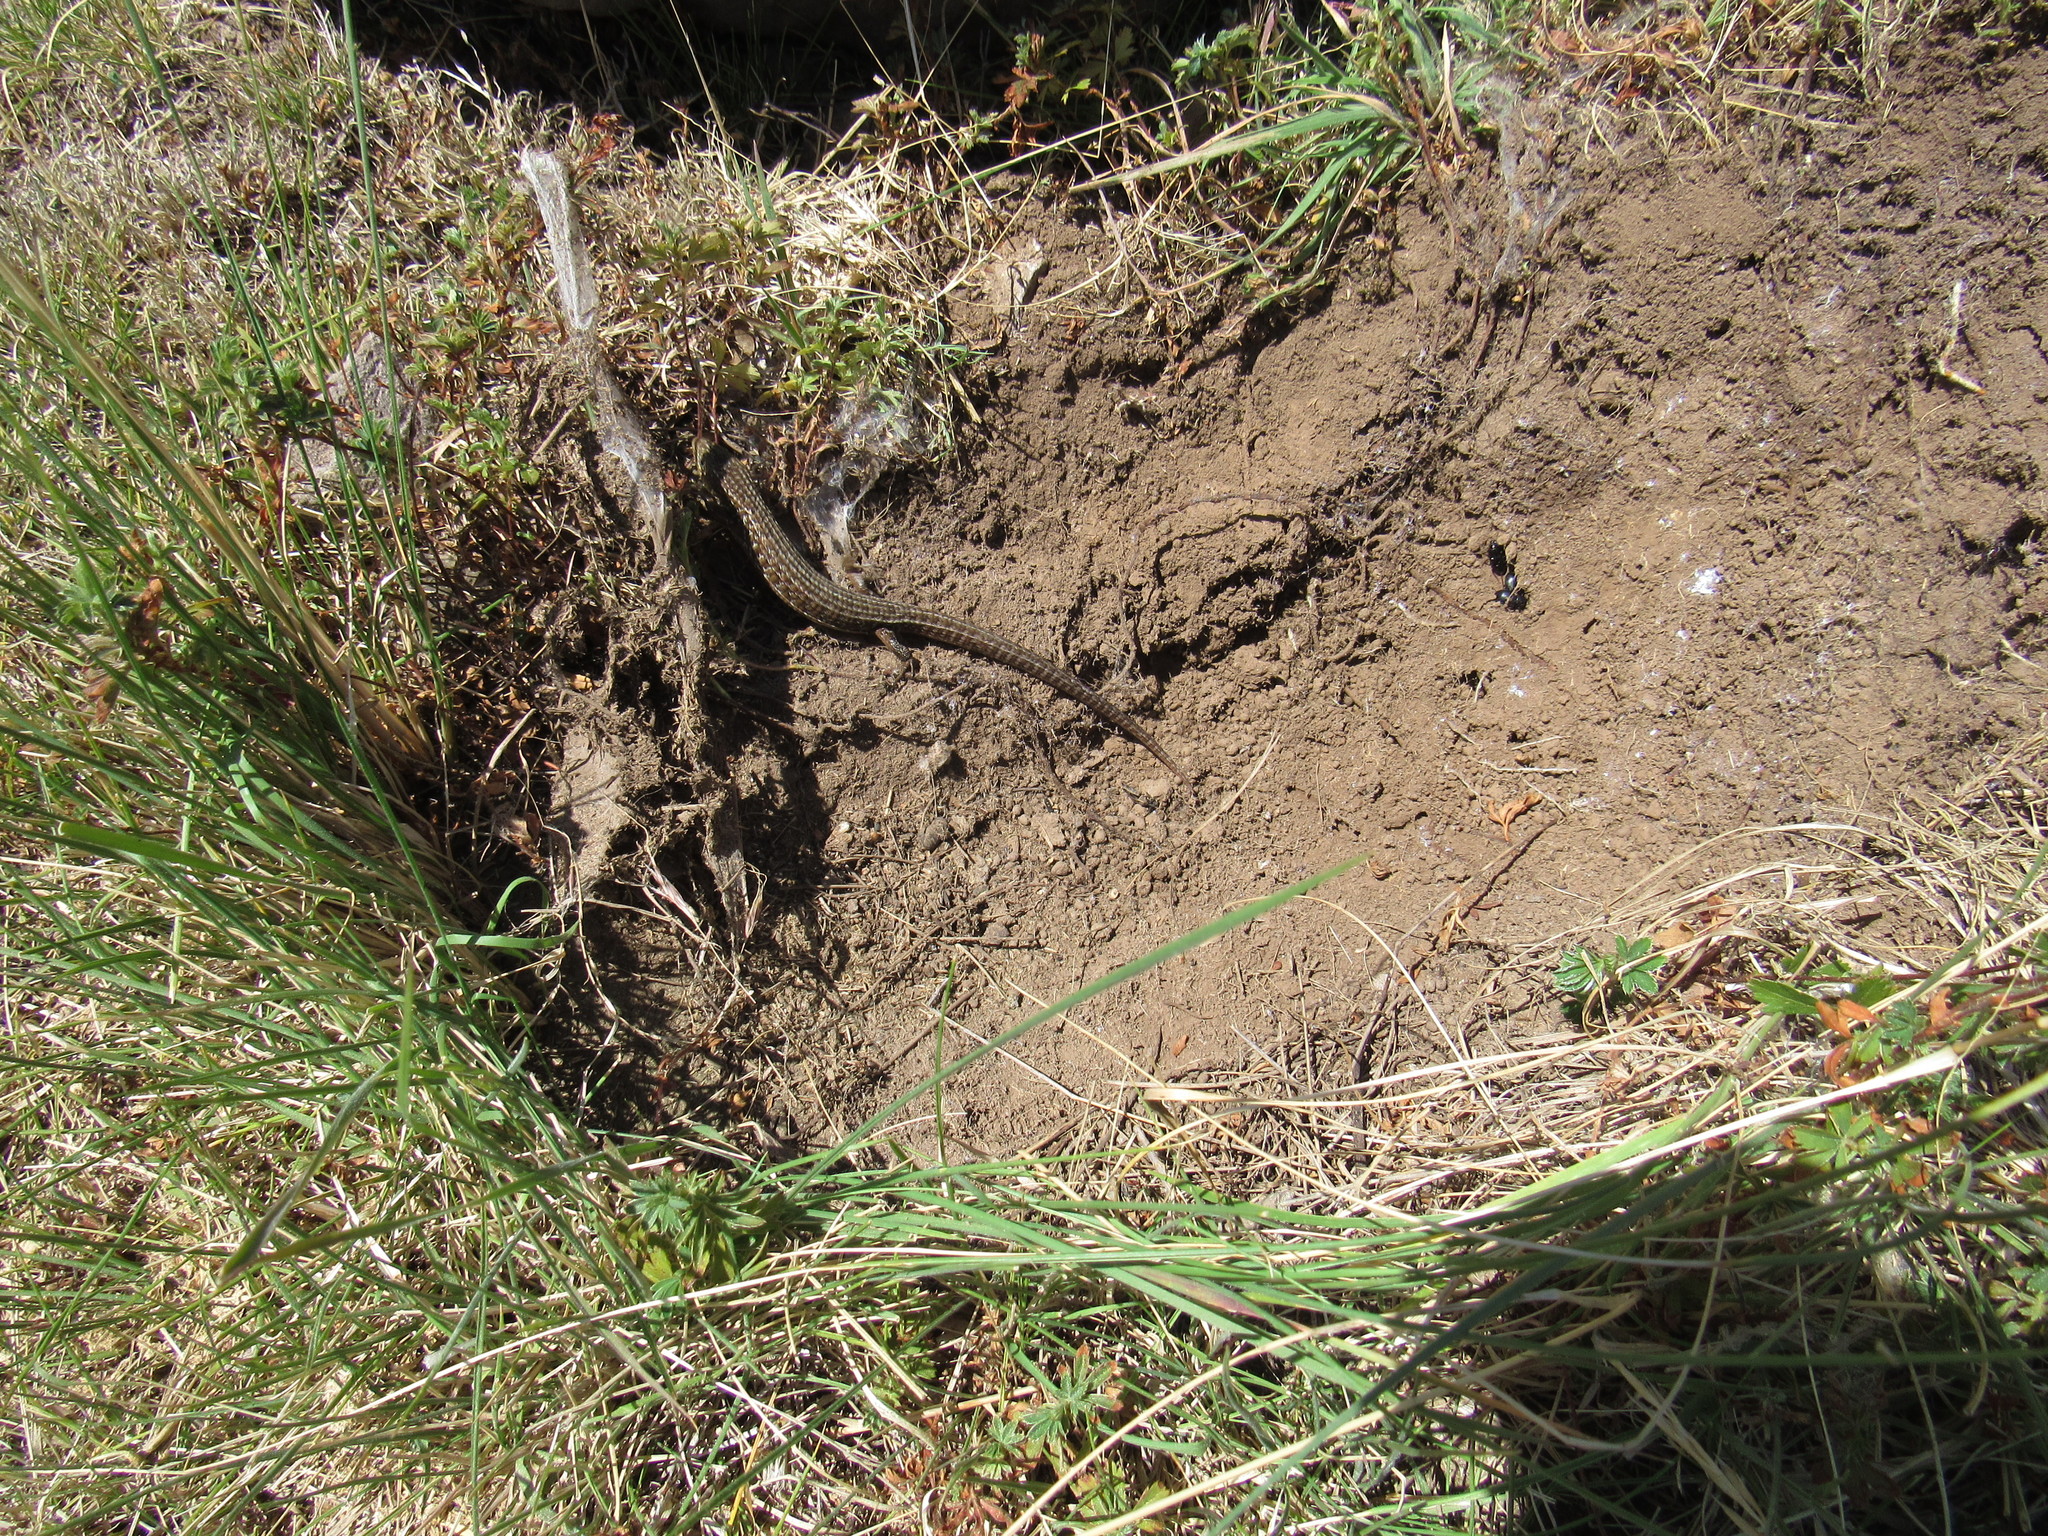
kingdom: Animalia
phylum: Chordata
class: Squamata
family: Anguidae
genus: Barisia
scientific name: Barisia imbricata
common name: Imbricate alligator lizard
